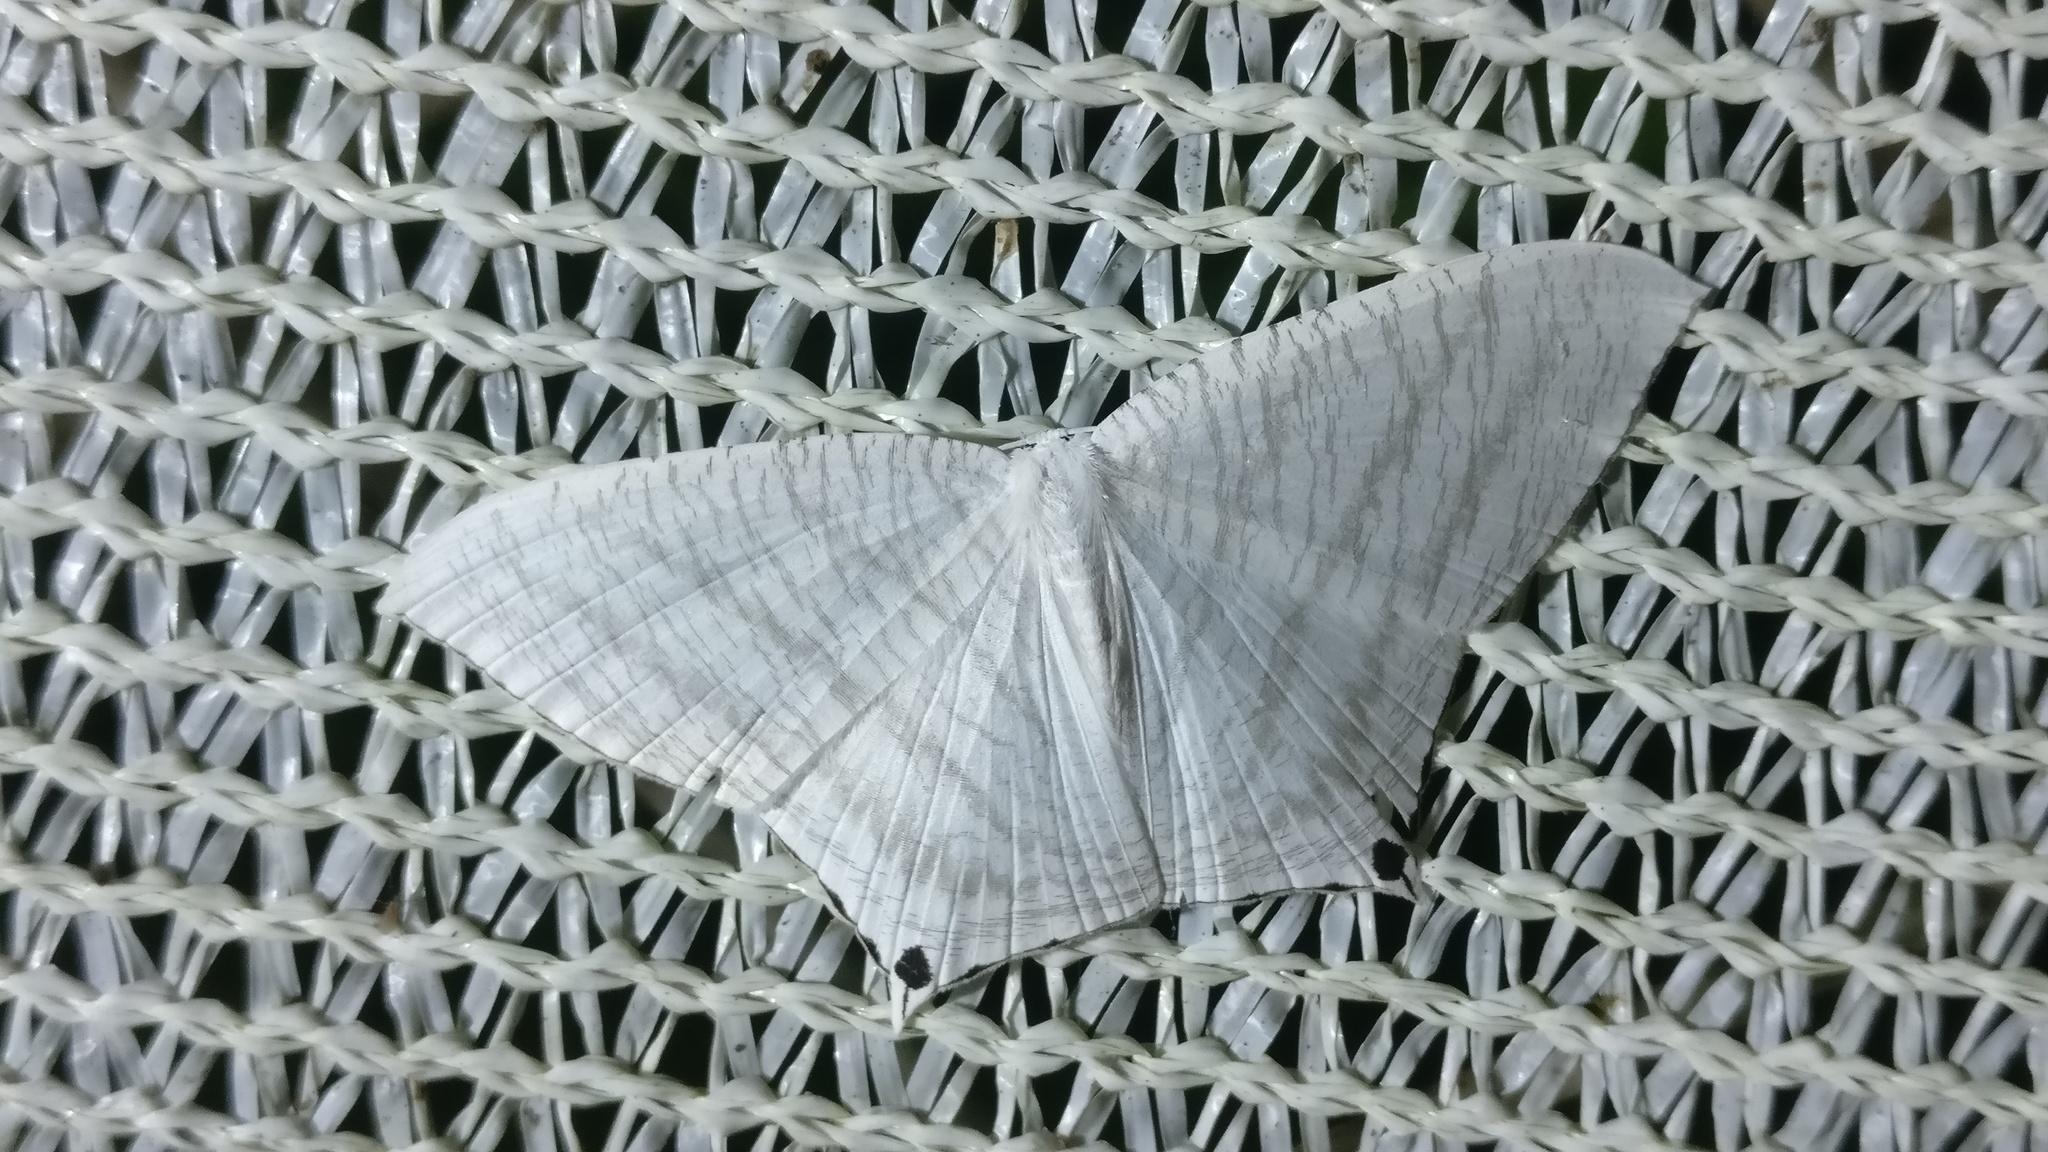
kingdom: Animalia
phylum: Arthropoda
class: Insecta
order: Lepidoptera
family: Uraniidae
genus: Micronia
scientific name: Micronia aculeata
